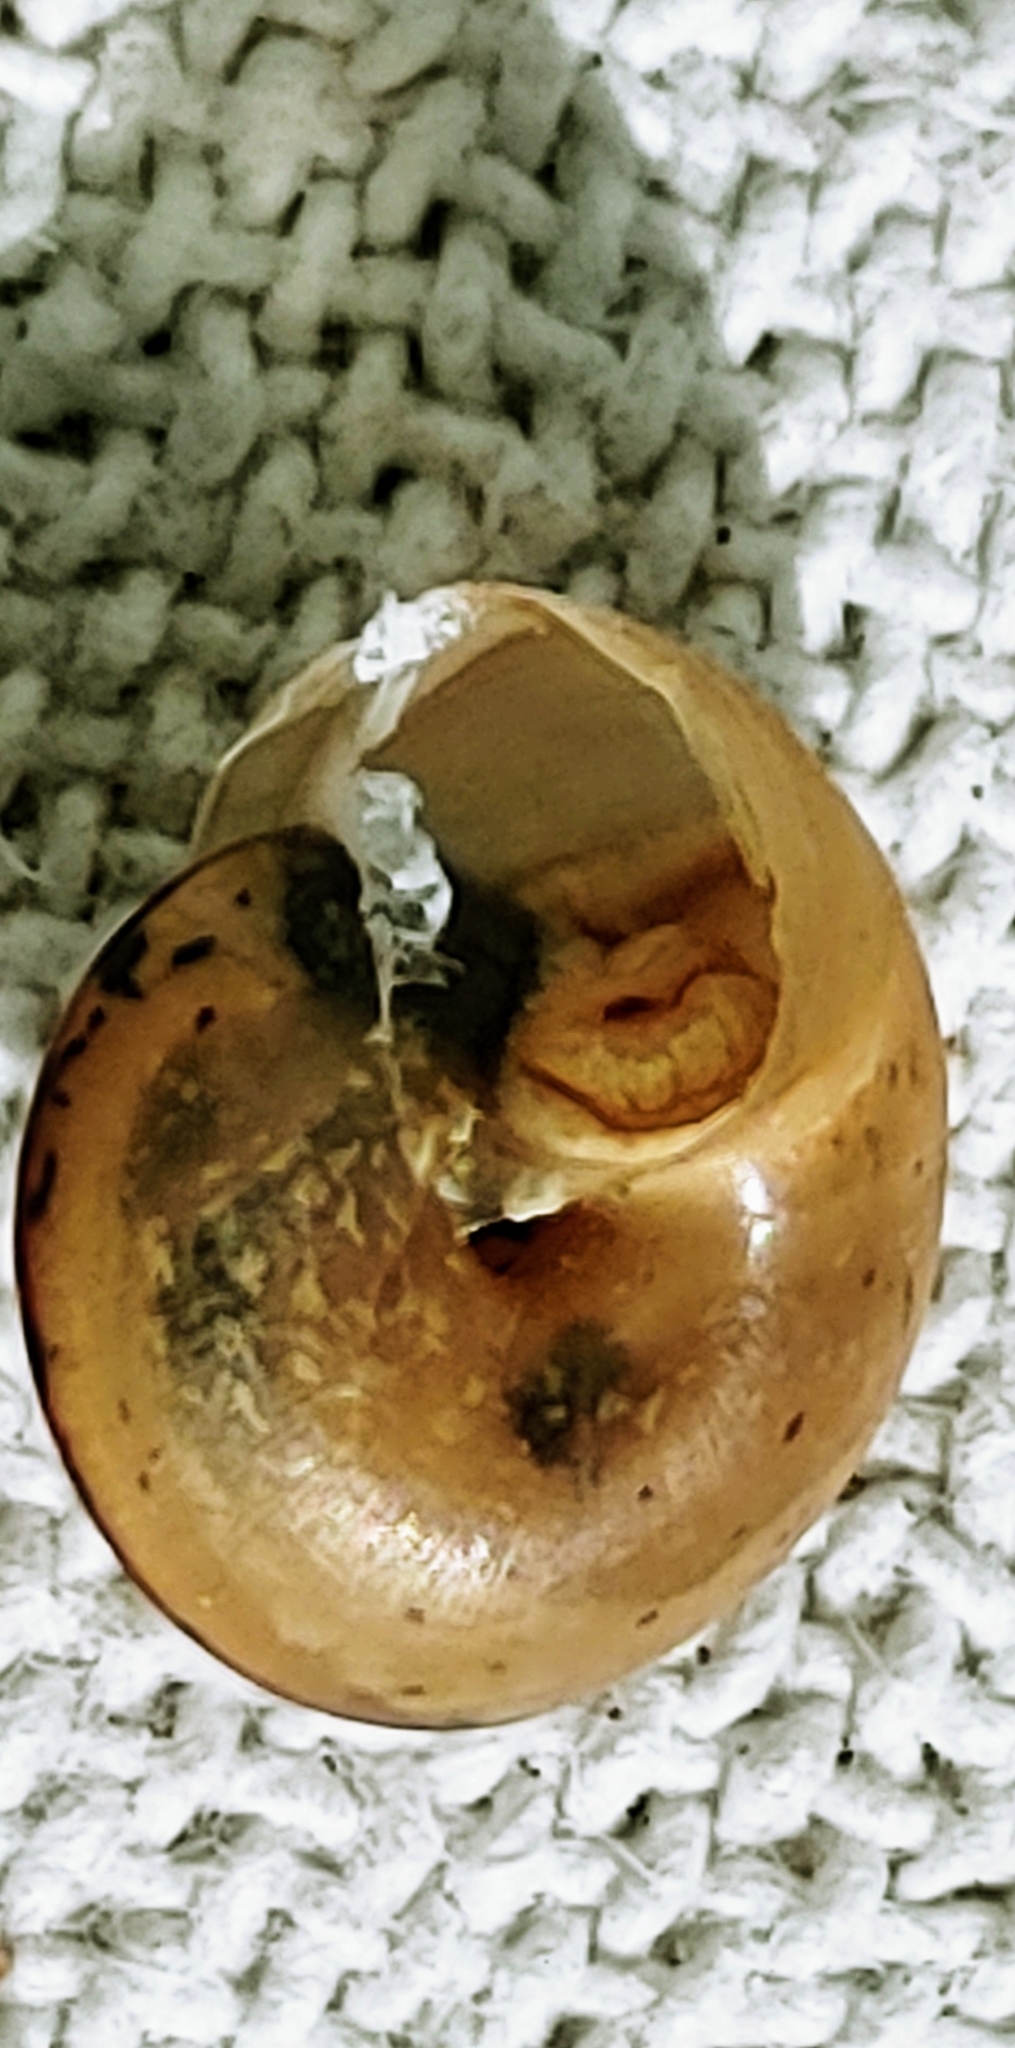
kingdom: Animalia
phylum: Mollusca
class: Gastropoda
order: Stylommatophora
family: Camaenidae
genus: Bradybaena
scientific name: Bradybaena similaris
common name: Asian trampsnail
